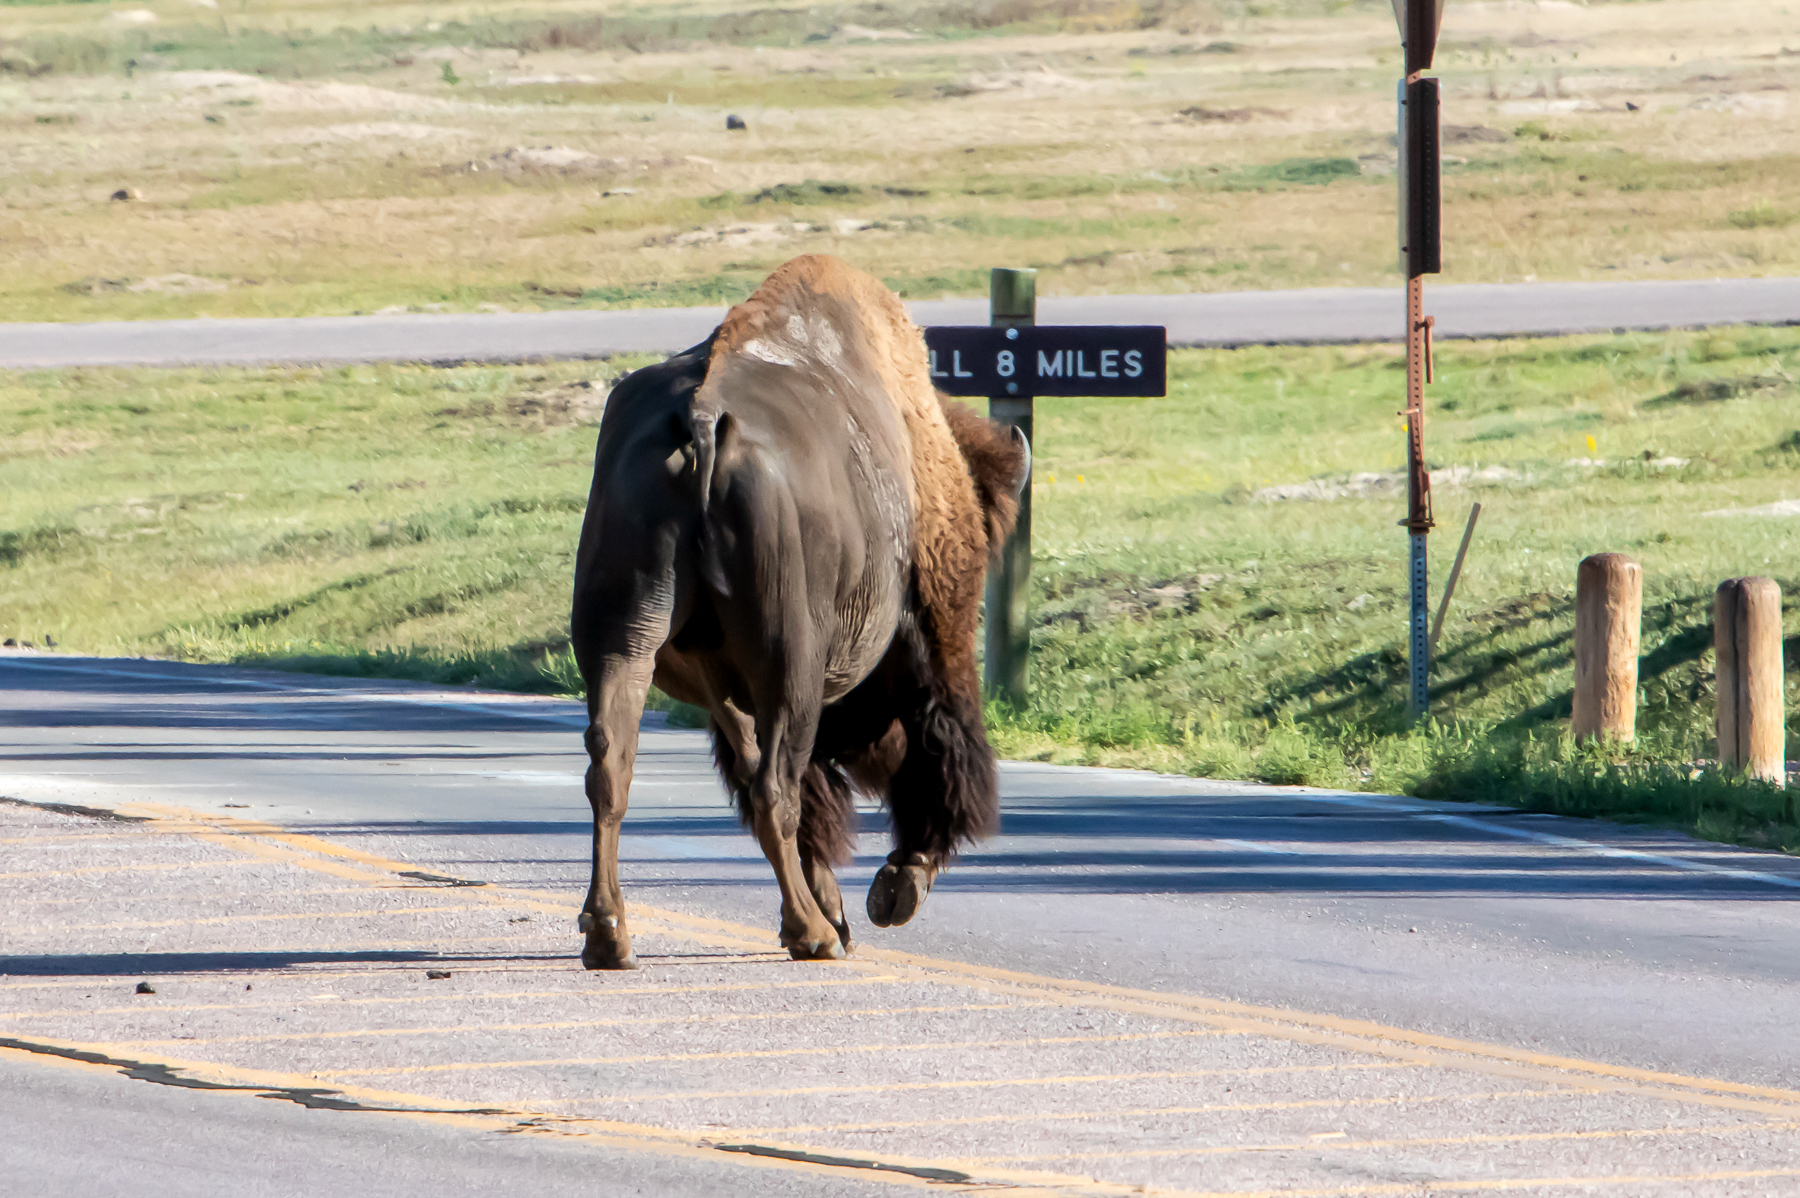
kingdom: Animalia
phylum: Chordata
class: Mammalia
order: Artiodactyla
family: Bovidae
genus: Bison
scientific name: Bison bison
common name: American bison
